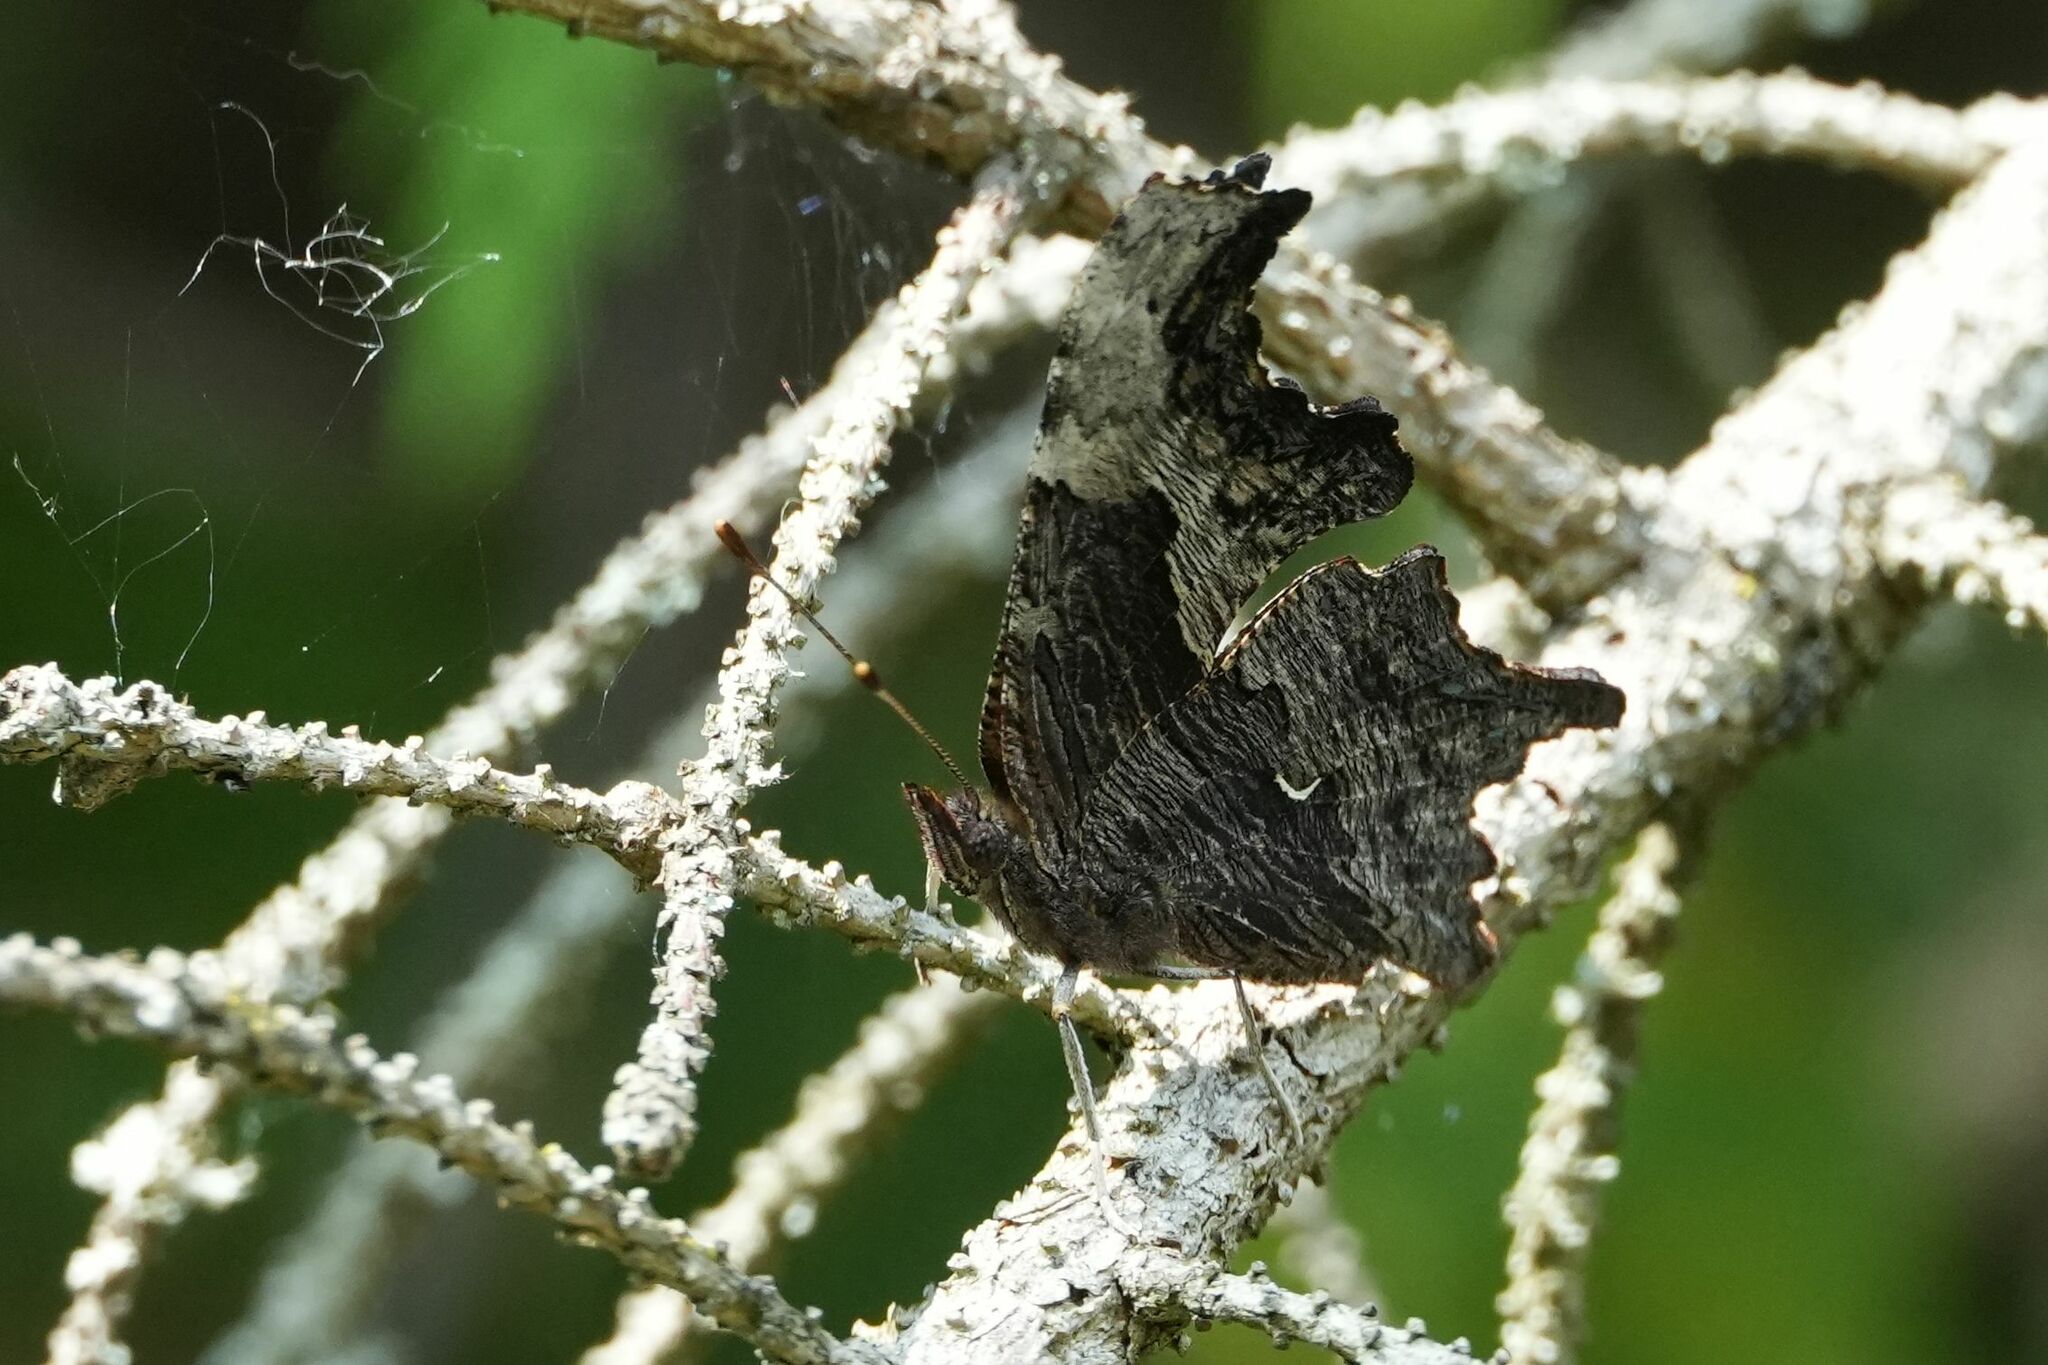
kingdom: Animalia
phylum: Arthropoda
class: Insecta
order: Lepidoptera
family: Nymphalidae
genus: Polygonia
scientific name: Polygonia progne
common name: Gray comma
